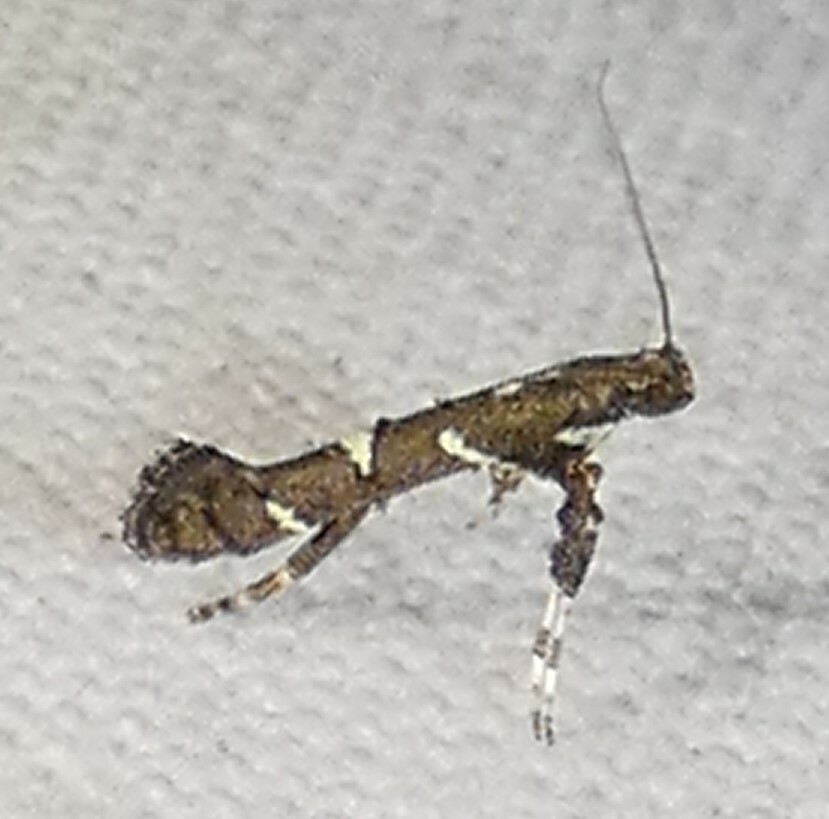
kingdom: Animalia
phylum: Arthropoda
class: Insecta
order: Lepidoptera
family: Gracillariidae
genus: Caloptilia
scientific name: Caloptilia triadicae
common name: Tallow leaf roller
